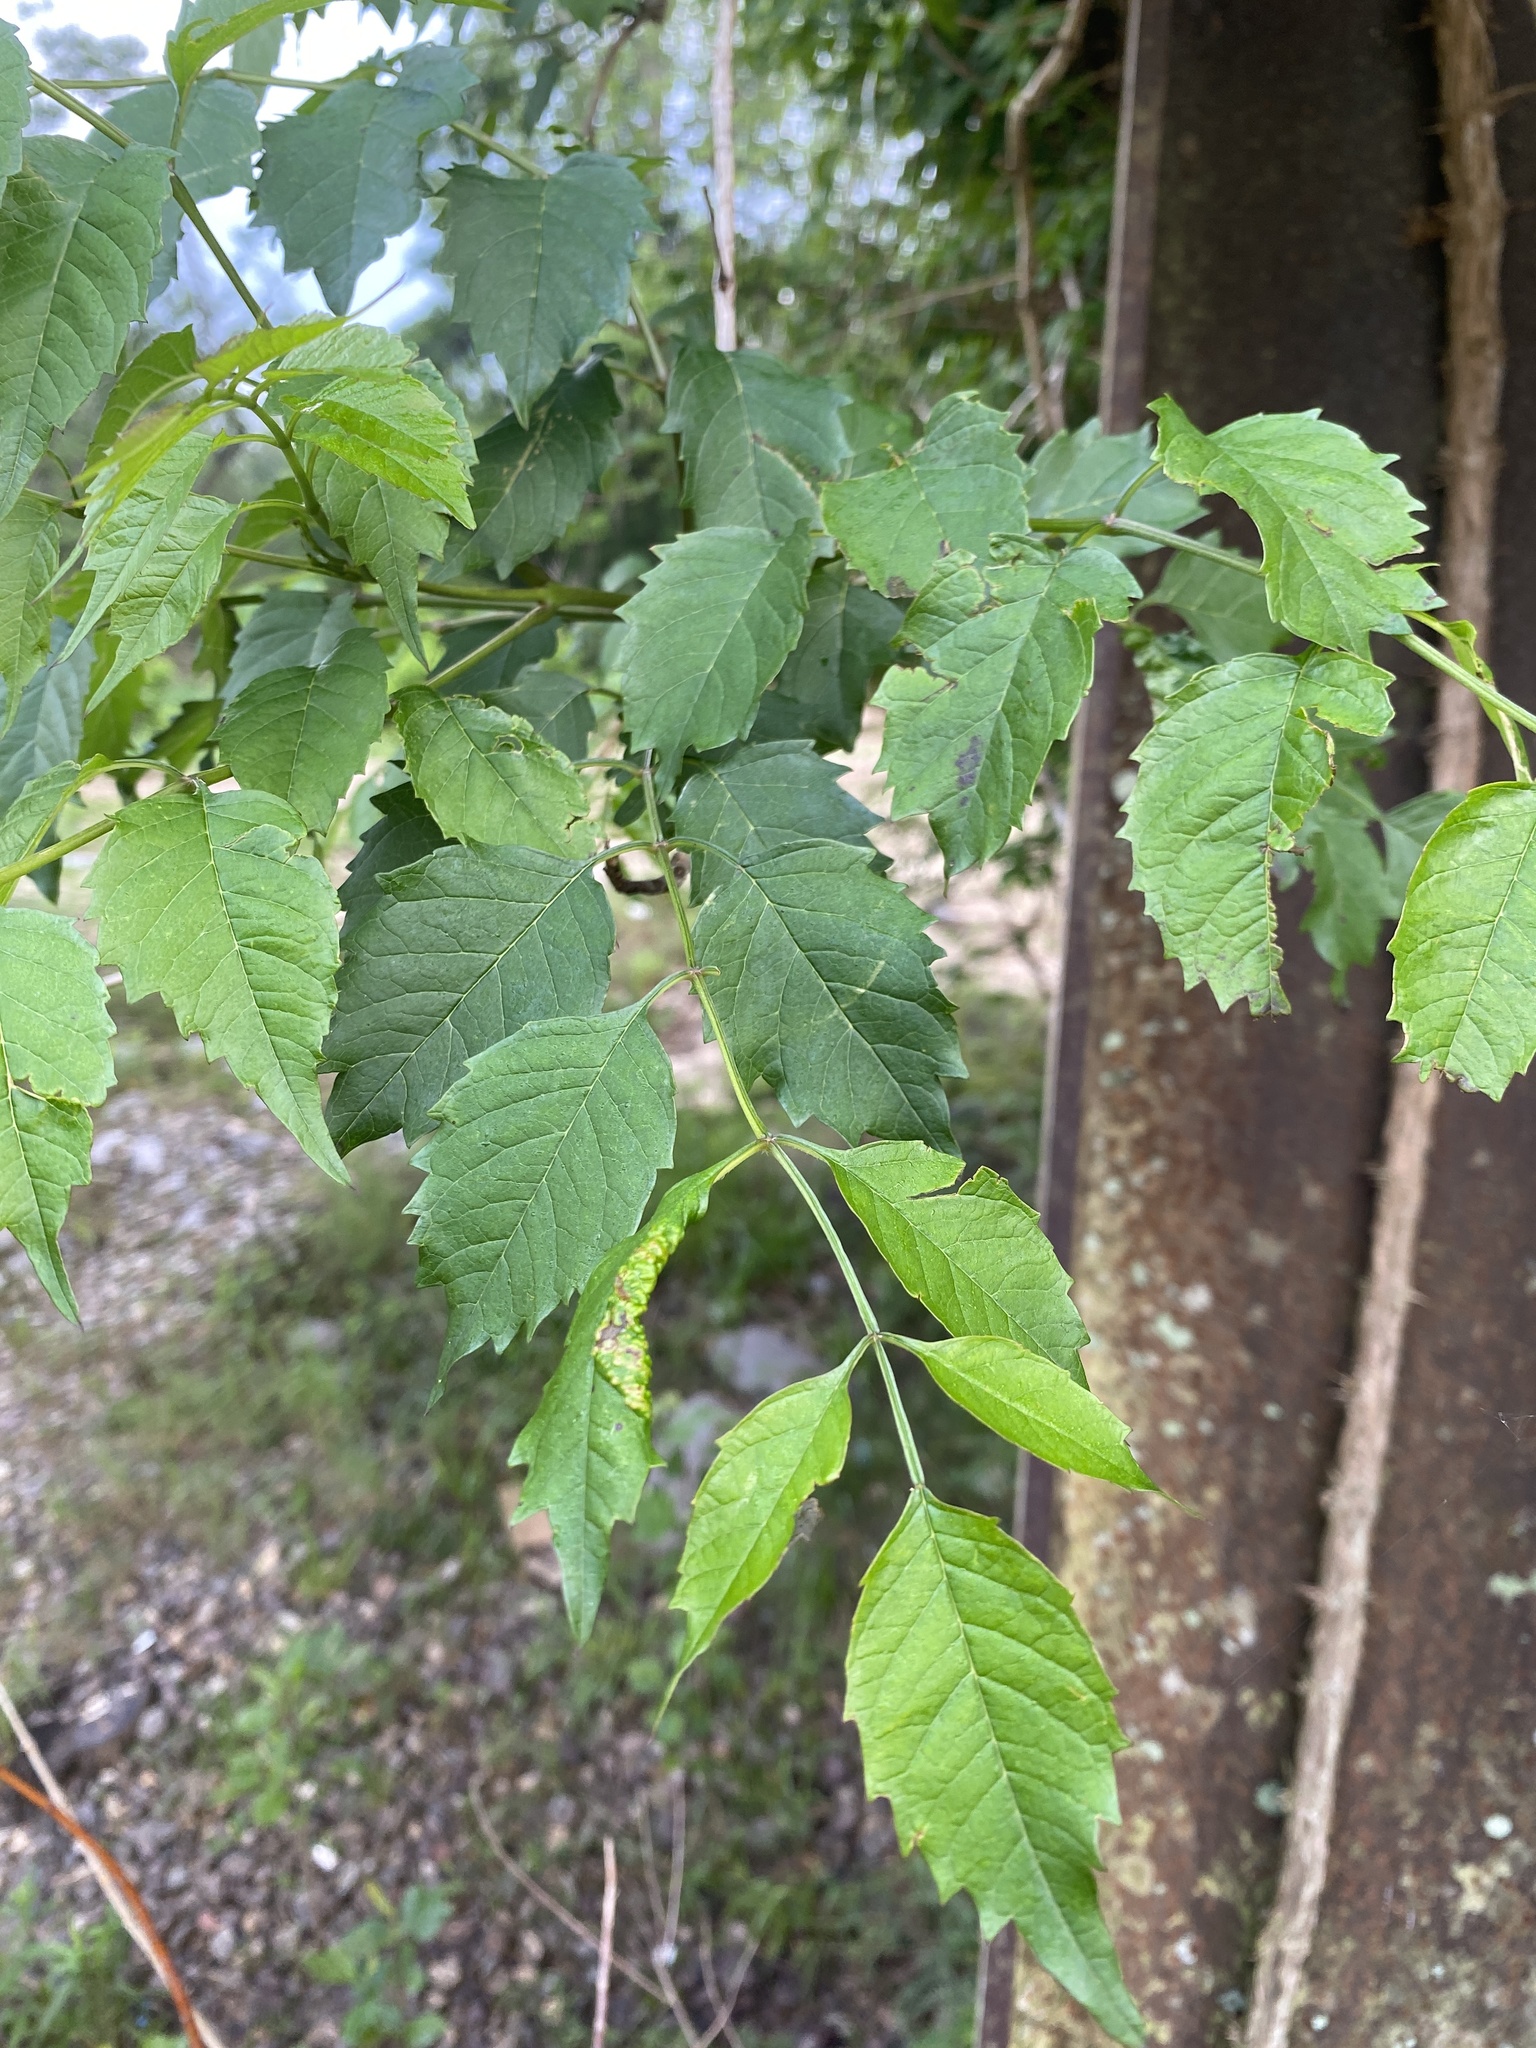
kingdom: Plantae
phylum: Tracheophyta
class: Magnoliopsida
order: Lamiales
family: Bignoniaceae
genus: Campsis
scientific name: Campsis radicans
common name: Trumpet-creeper
